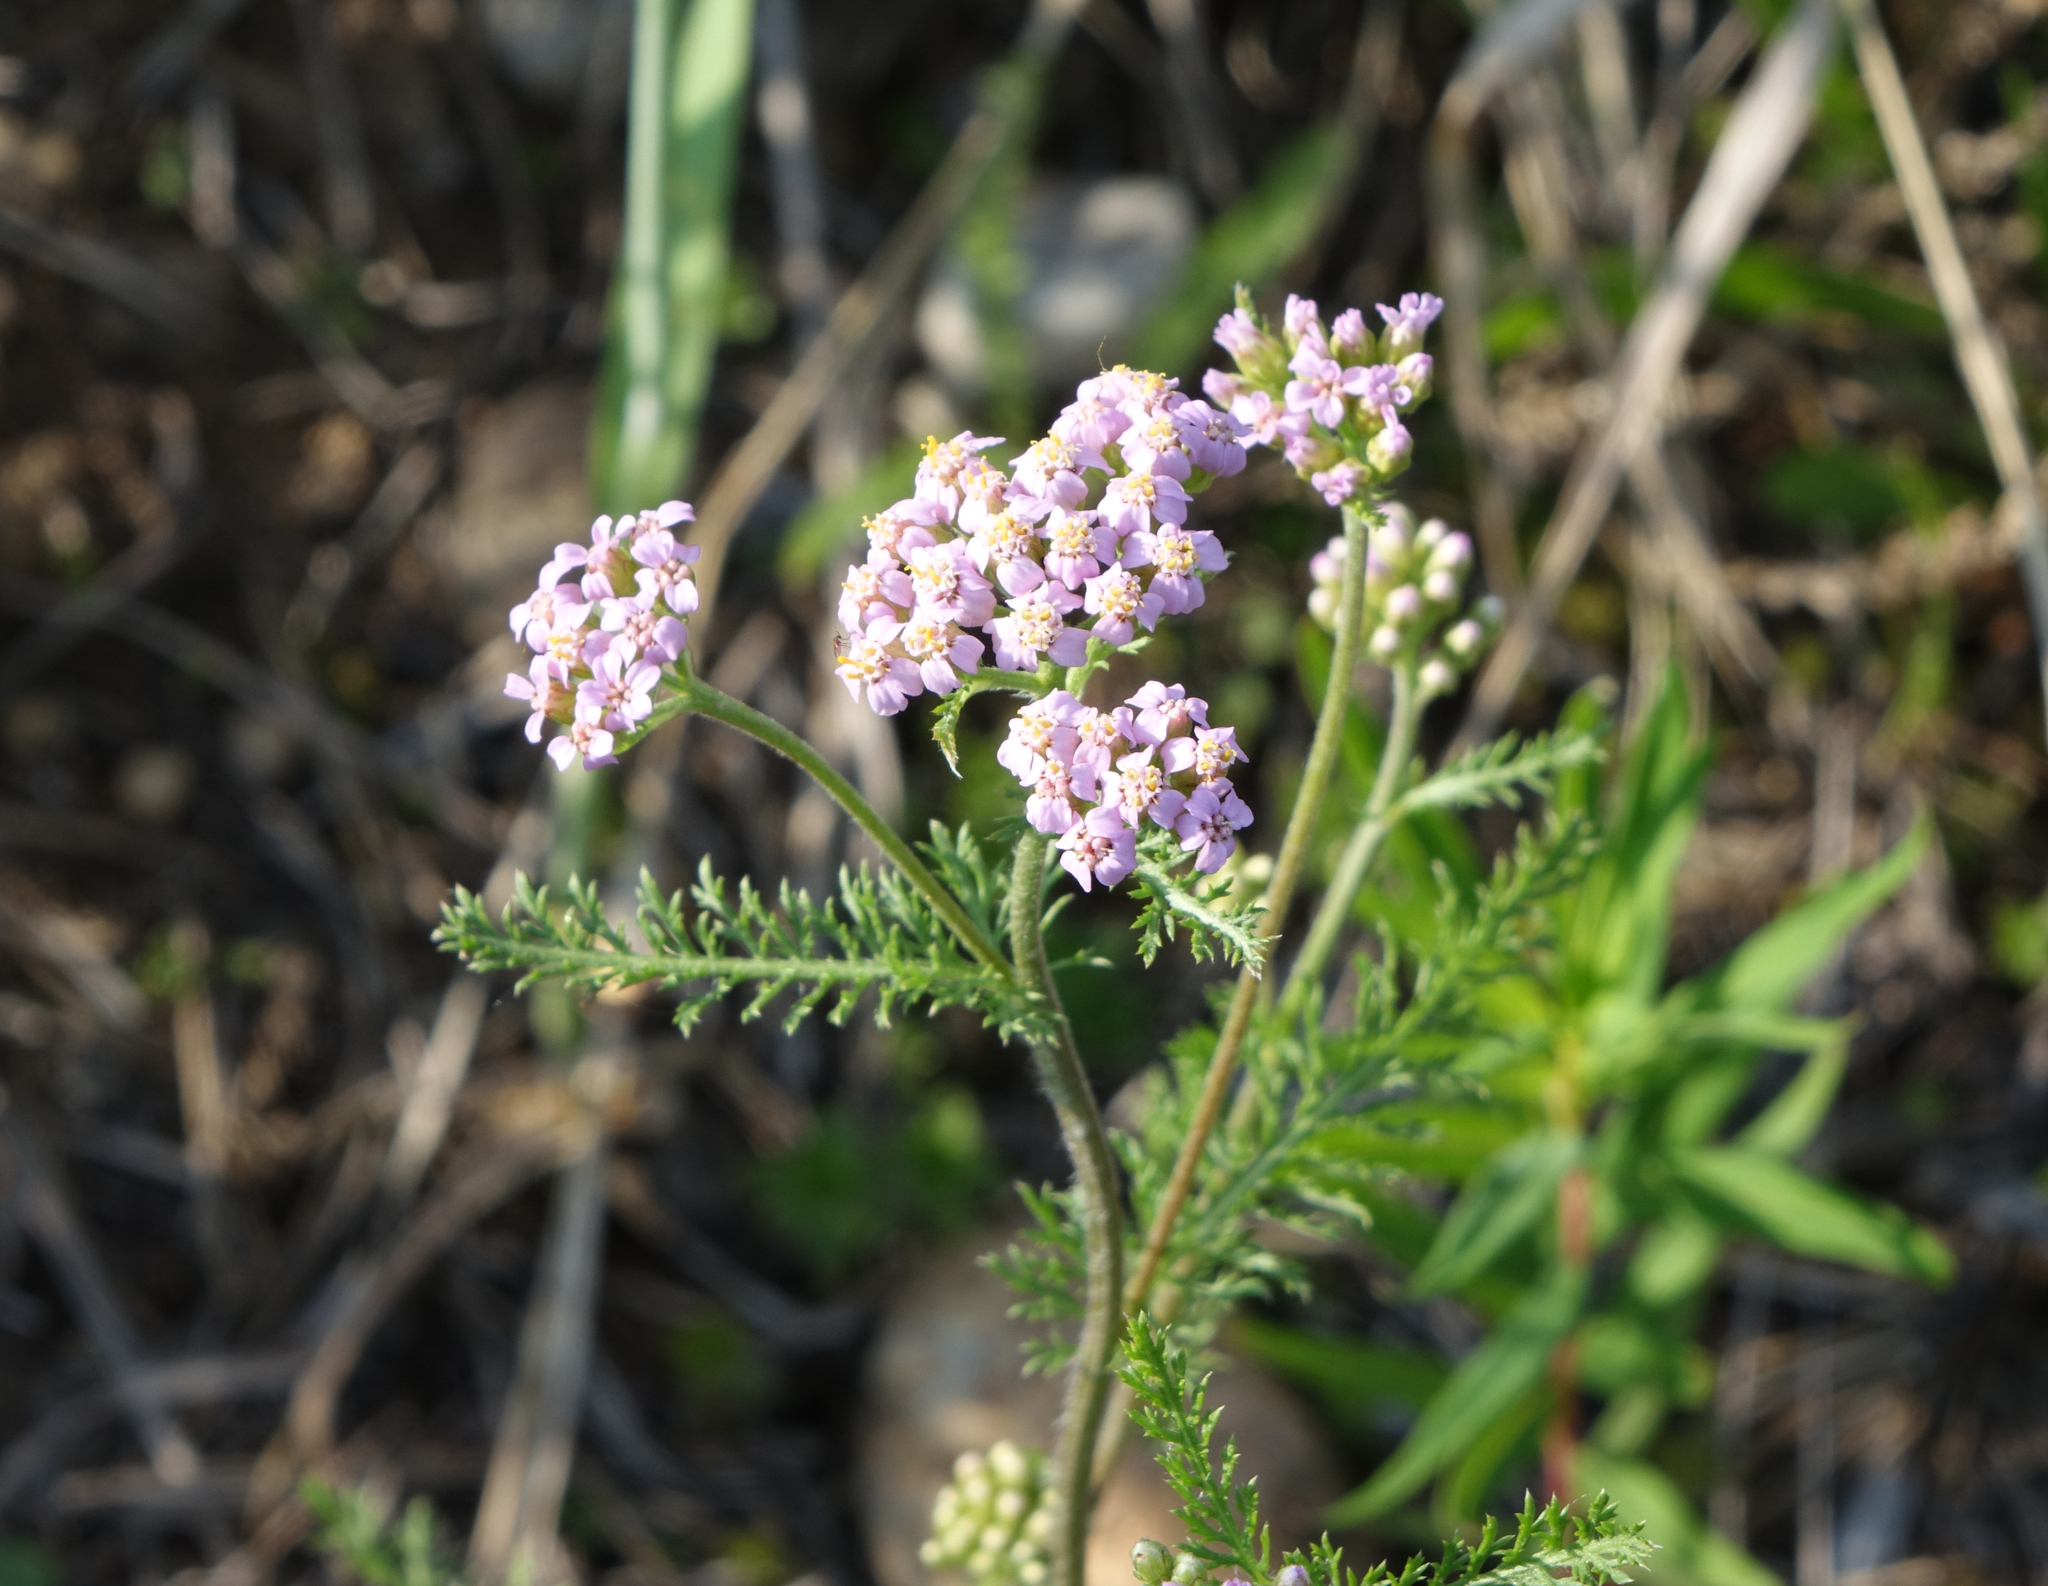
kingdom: Plantae
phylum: Tracheophyta
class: Magnoliopsida
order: Asterales
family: Asteraceae
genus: Achillea
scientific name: Achillea millefolium
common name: Yarrow
